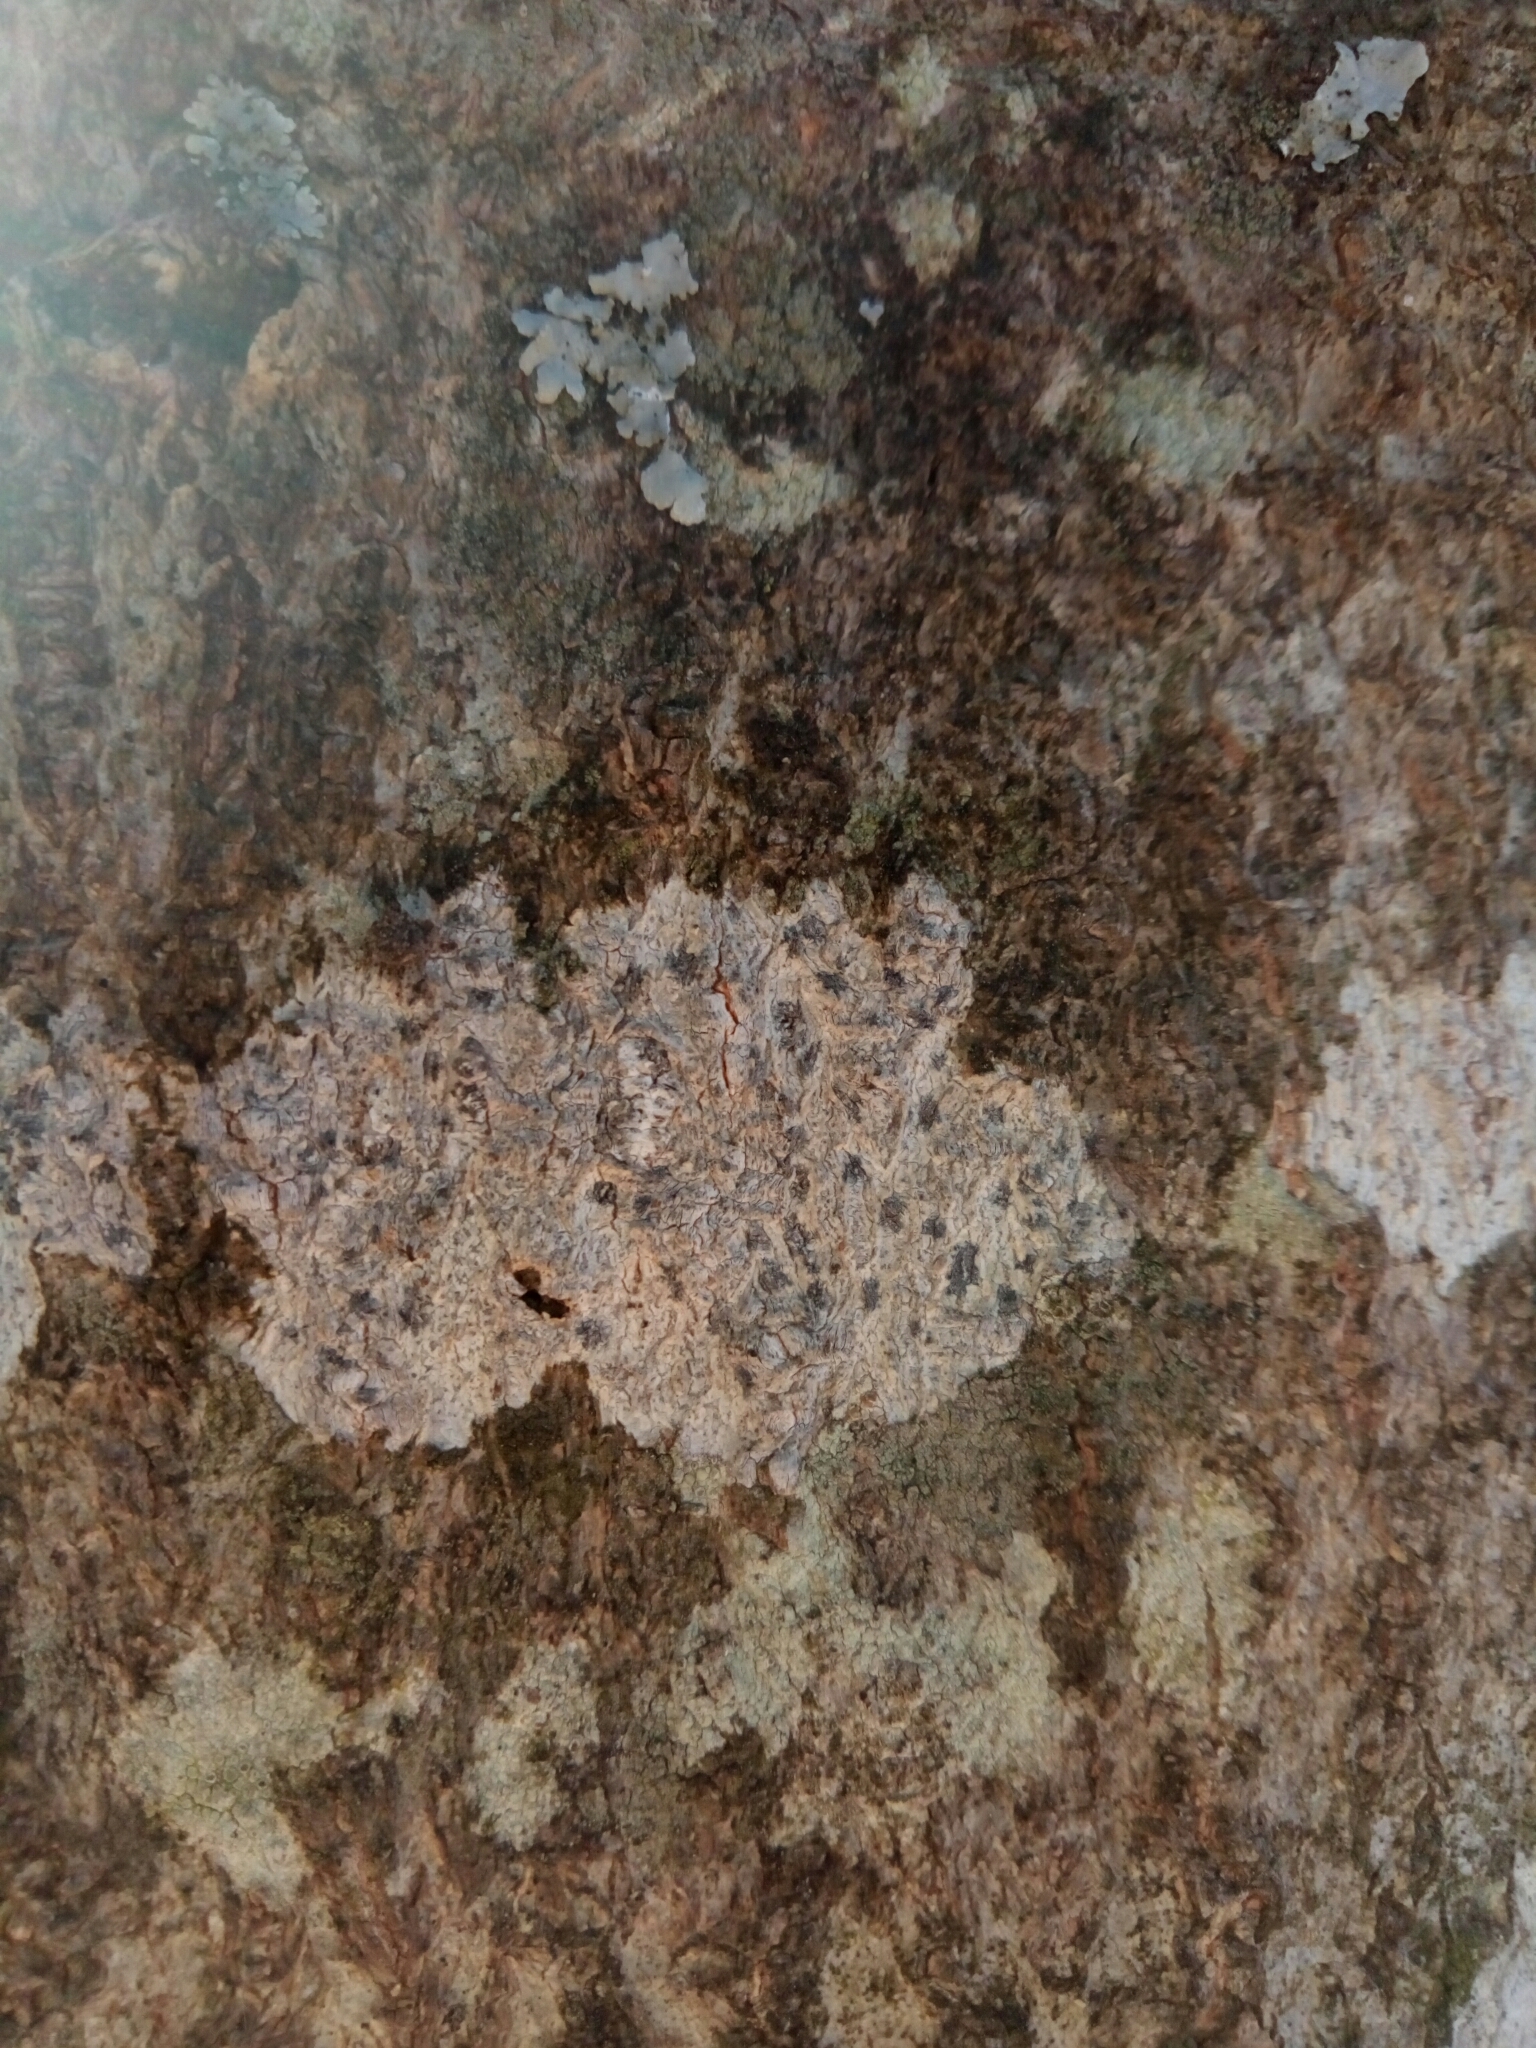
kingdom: Fungi
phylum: Ascomycota
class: Arthoniomycetes
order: Arthoniales
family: Arthoniaceae
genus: Arthonia
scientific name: Arthonia susa
